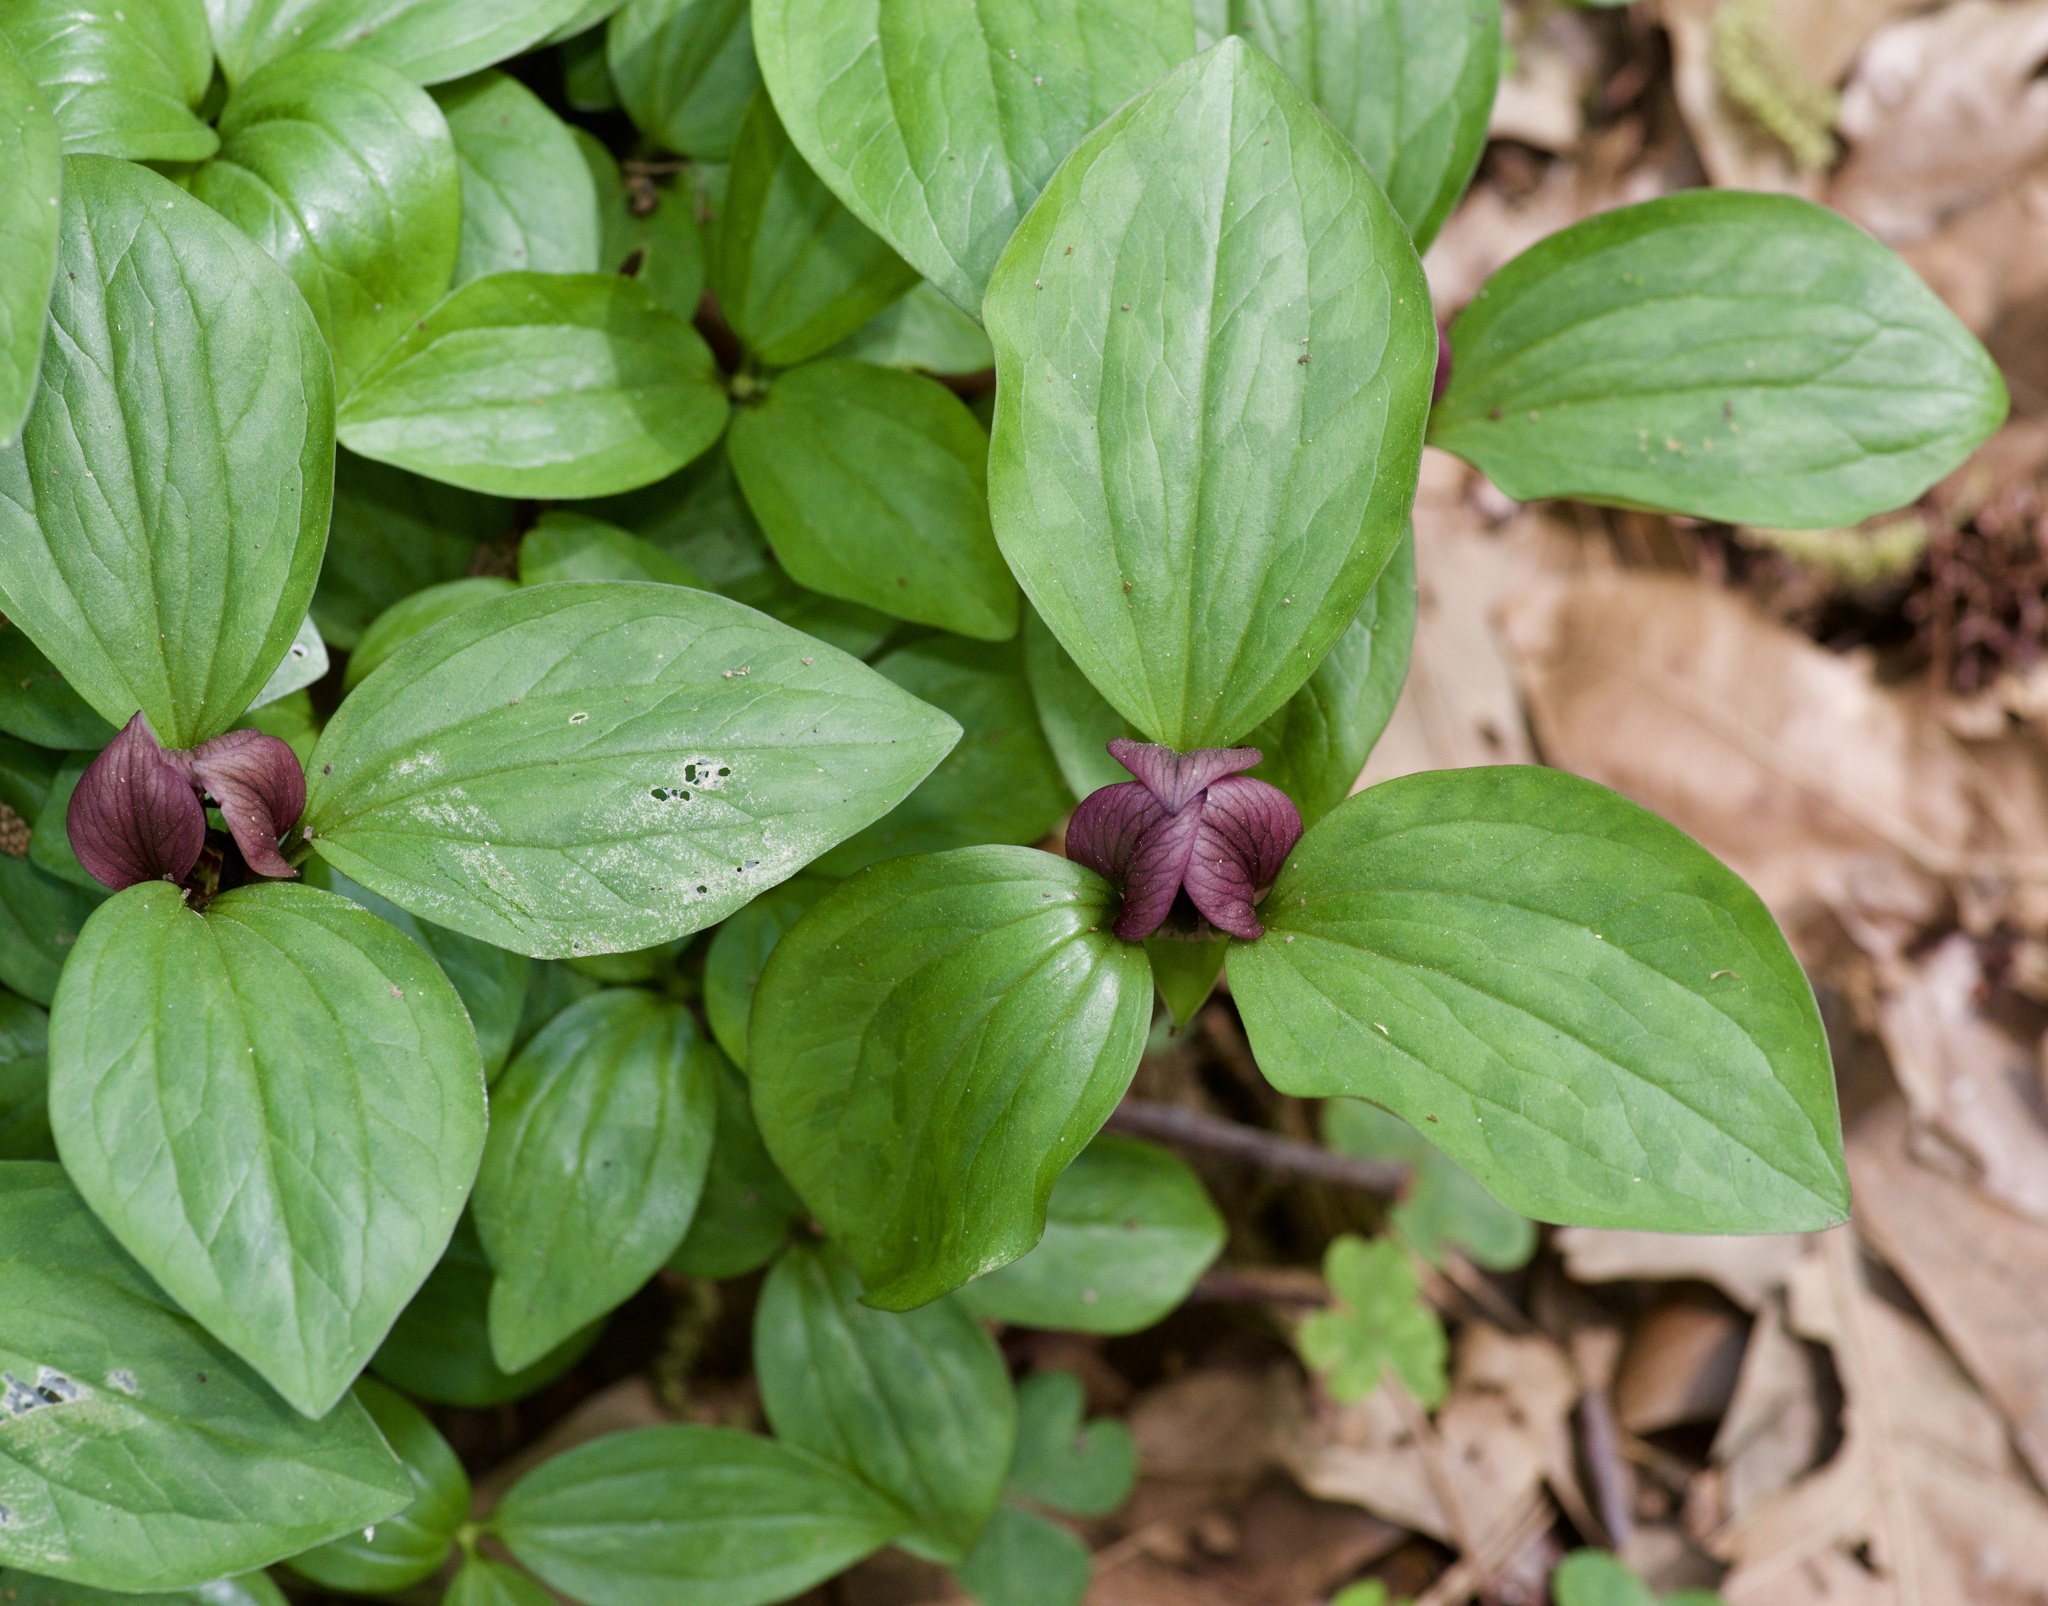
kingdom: Plantae
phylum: Tracheophyta
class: Liliopsida
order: Liliales
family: Melanthiaceae
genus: Trillium
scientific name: Trillium recurvatum
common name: Bloody butcher
